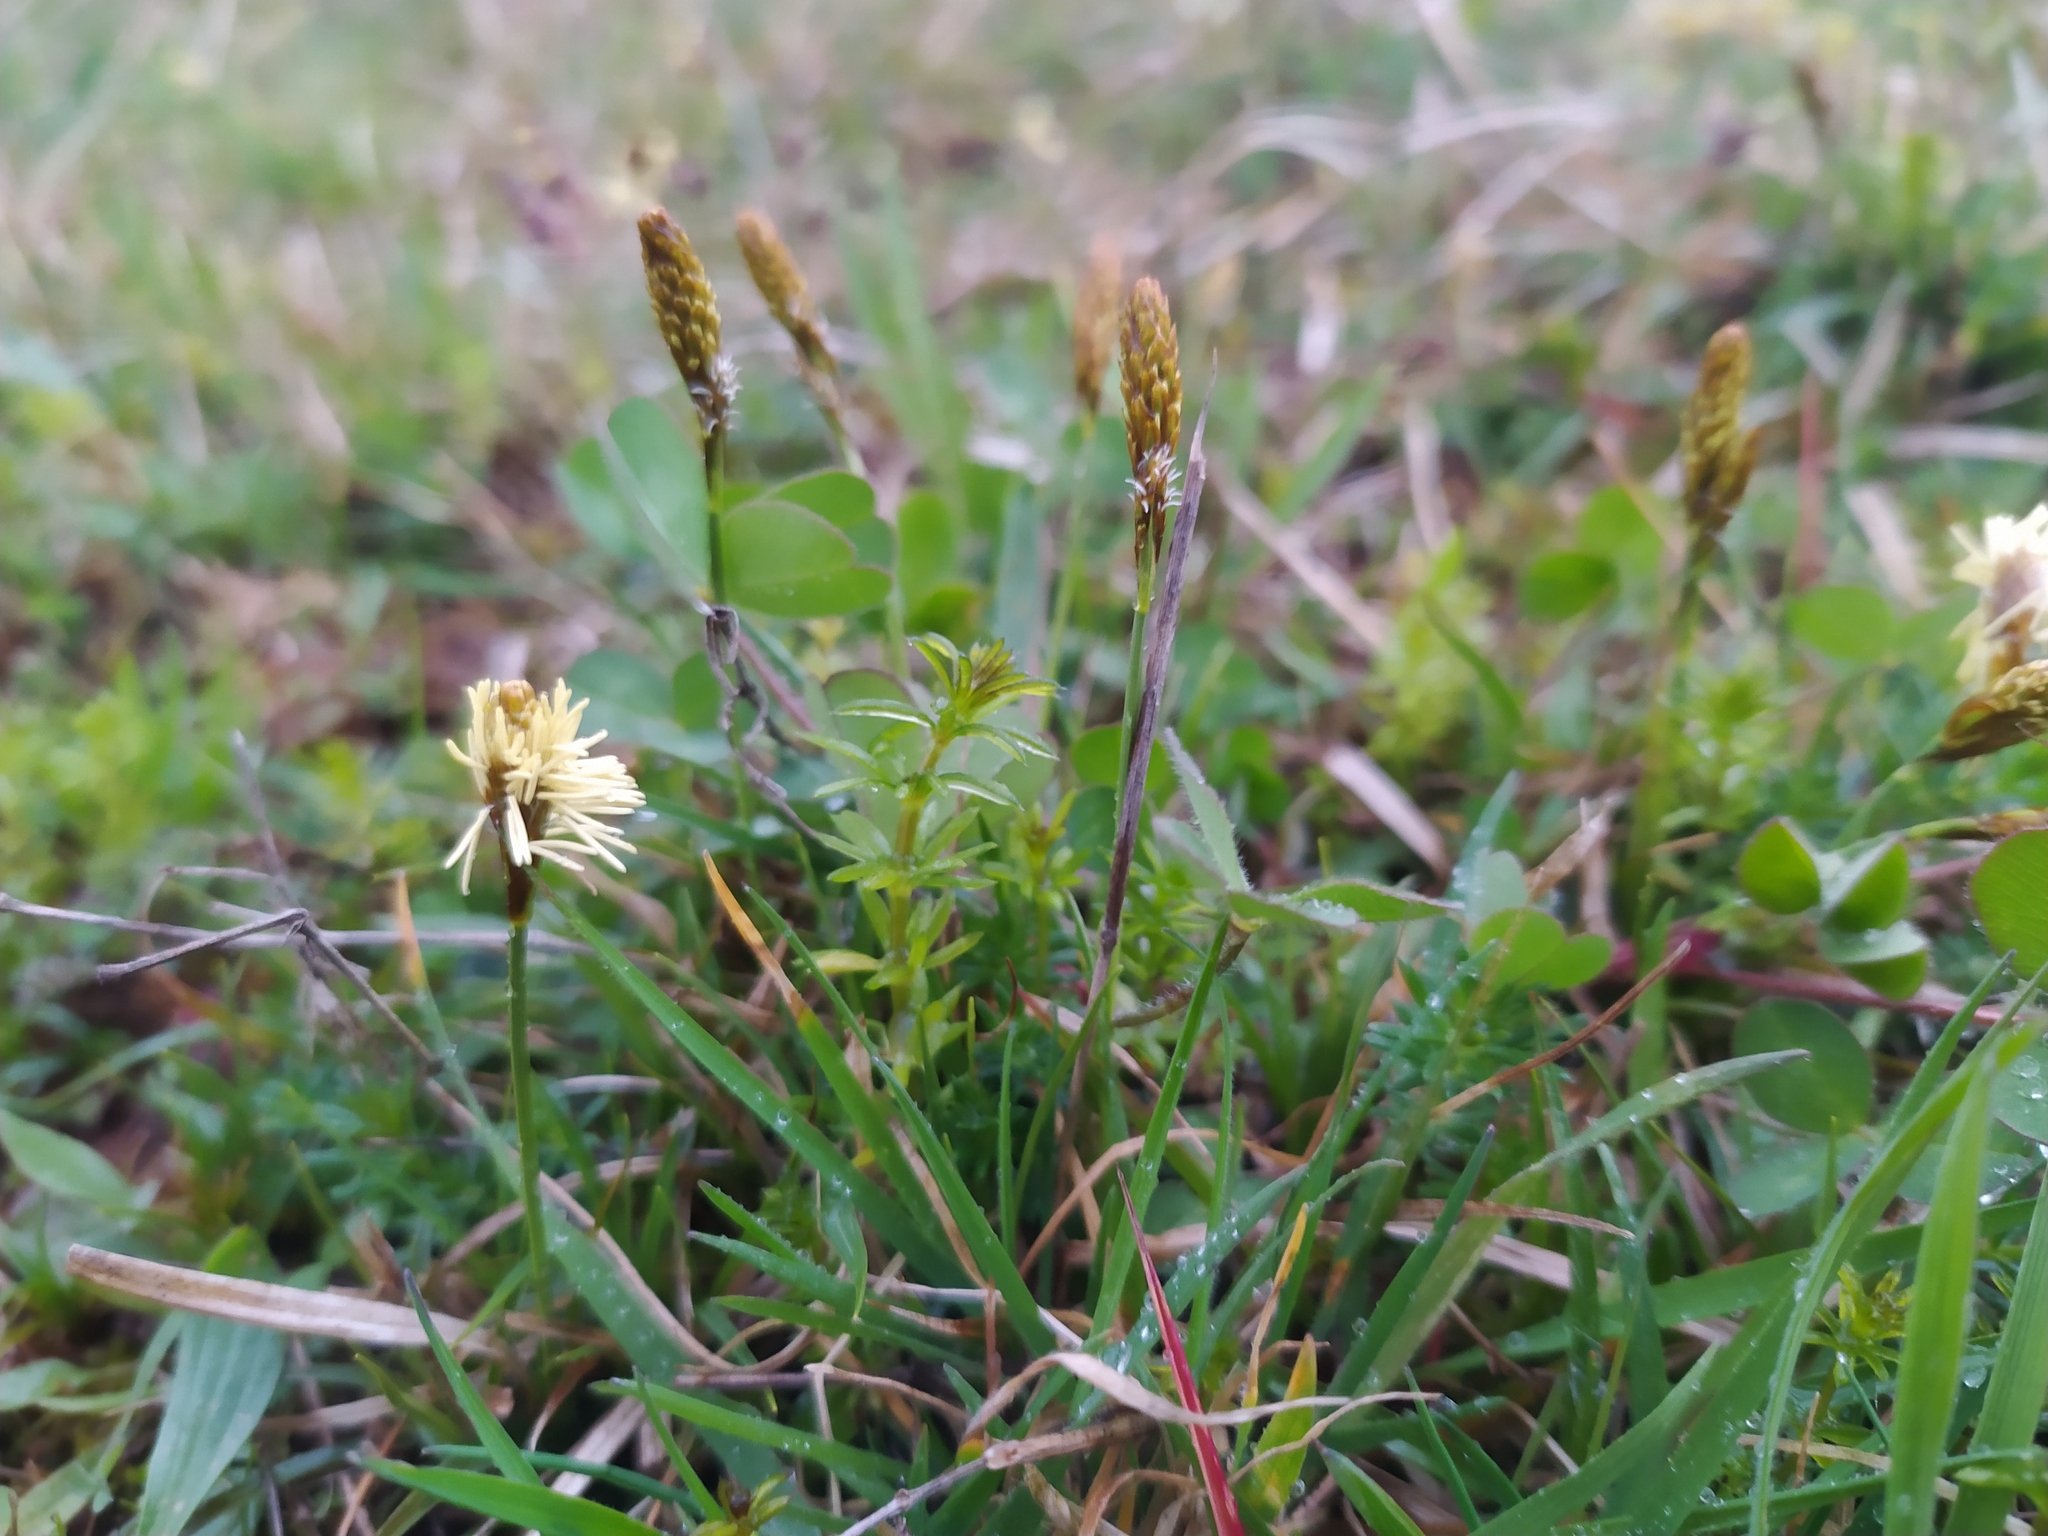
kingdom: Plantae
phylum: Tracheophyta
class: Liliopsida
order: Poales
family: Cyperaceae
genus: Carex
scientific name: Carex caryophyllea
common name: Spring sedge
